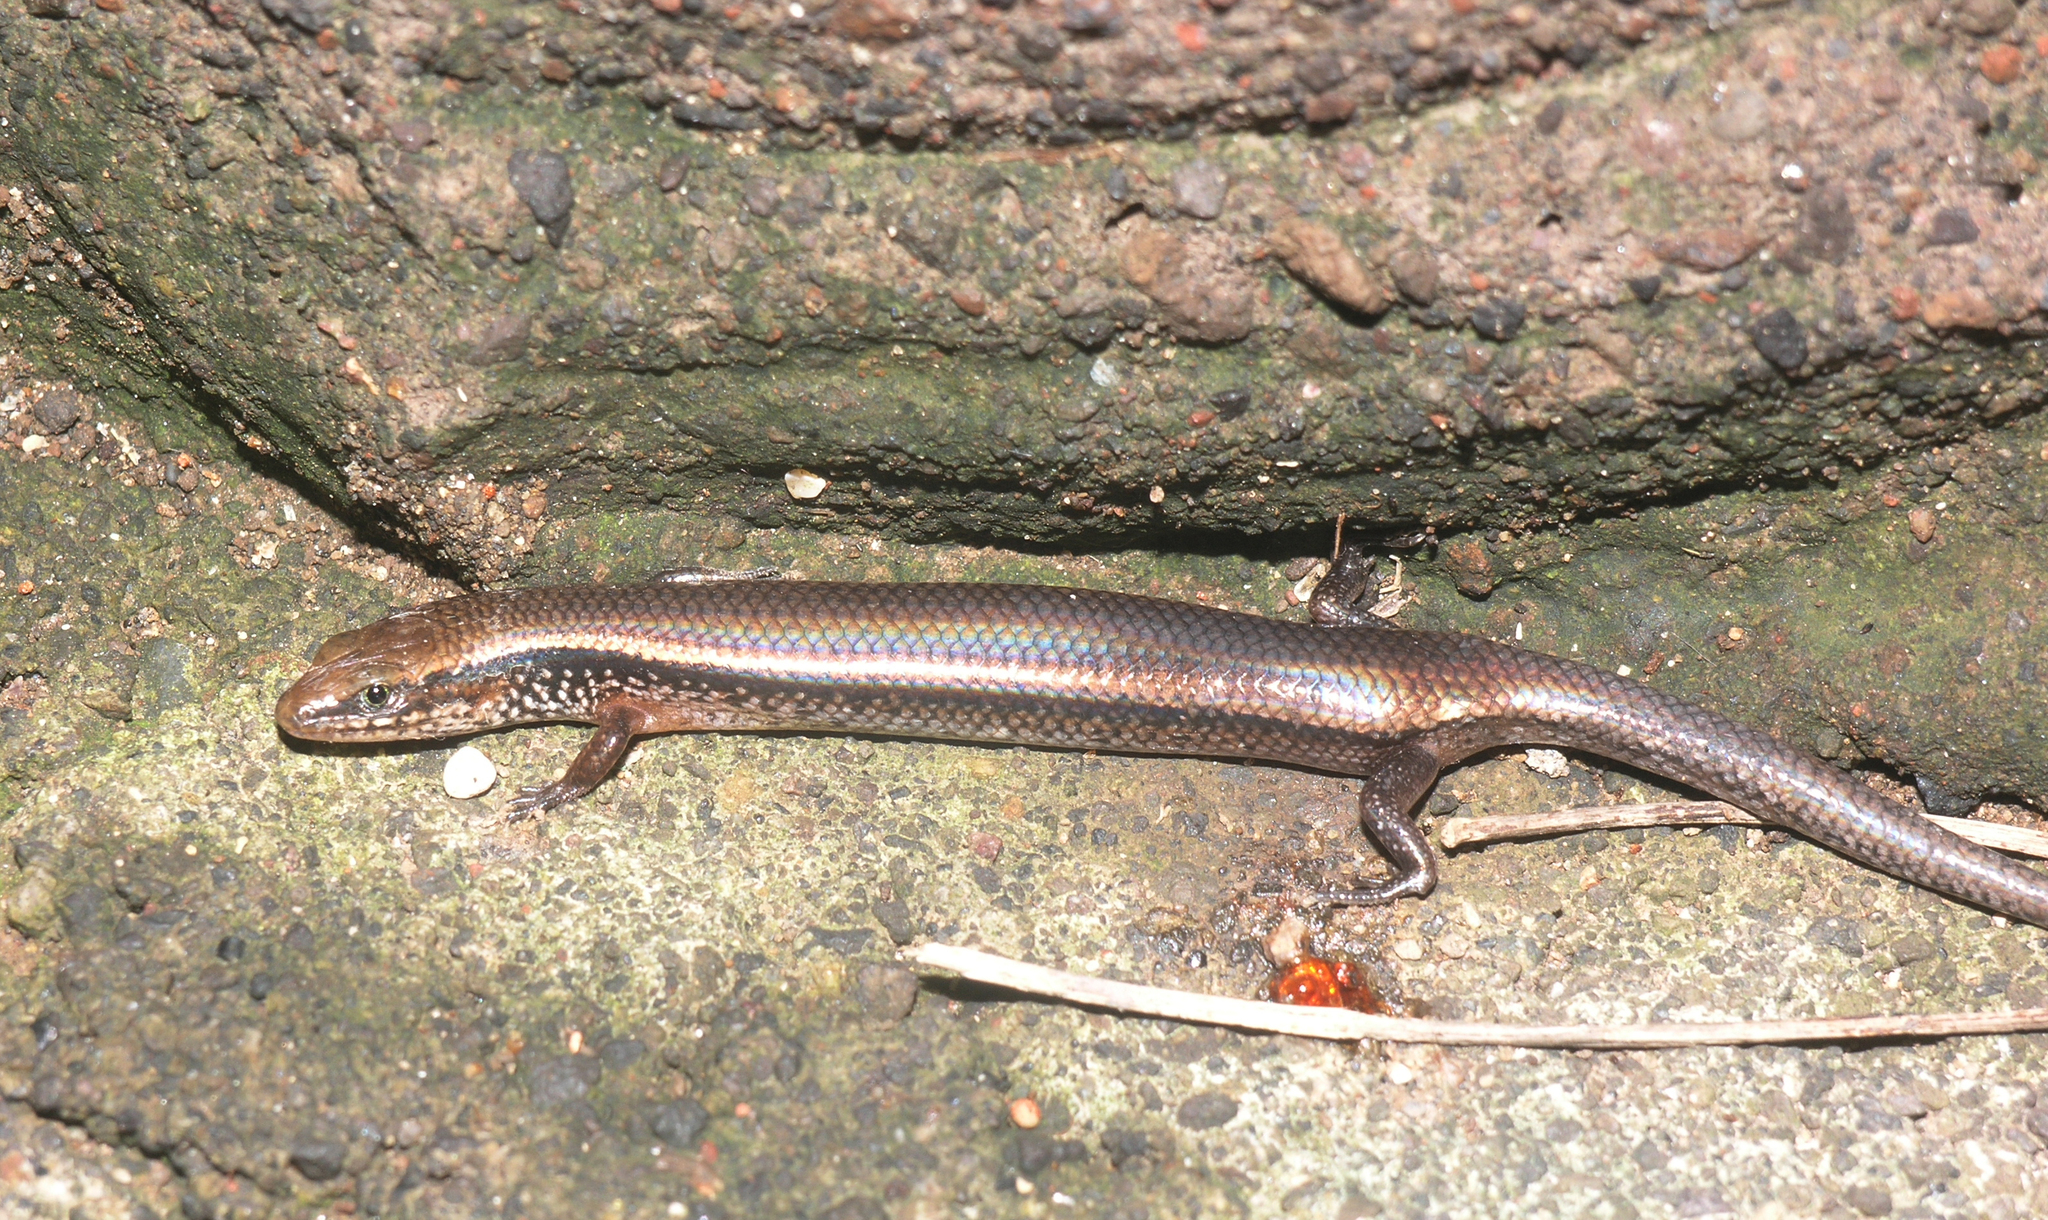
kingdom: Animalia
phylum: Chordata
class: Squamata
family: Scincidae
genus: Subdoluseps
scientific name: Subdoluseps bowringii
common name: Christmas island grass-skink
